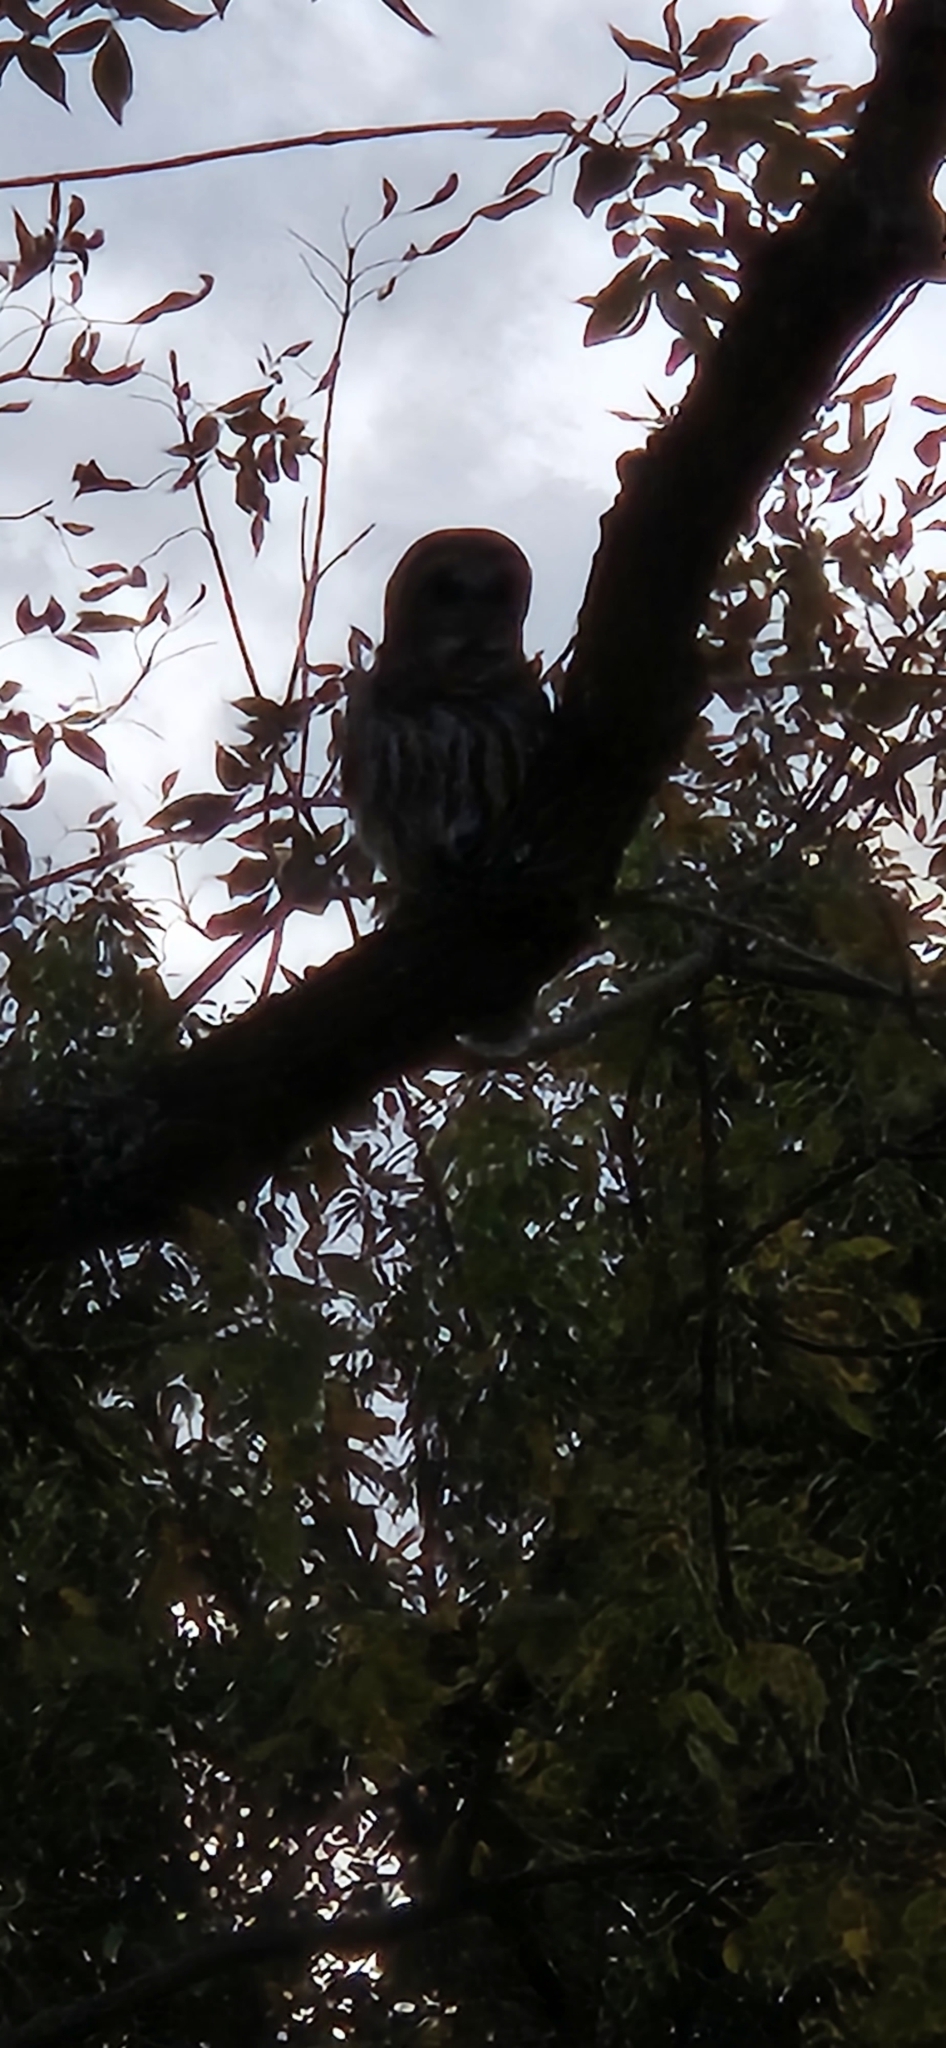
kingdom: Animalia
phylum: Chordata
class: Aves
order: Strigiformes
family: Strigidae
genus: Strix
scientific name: Strix varia
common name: Barred owl
